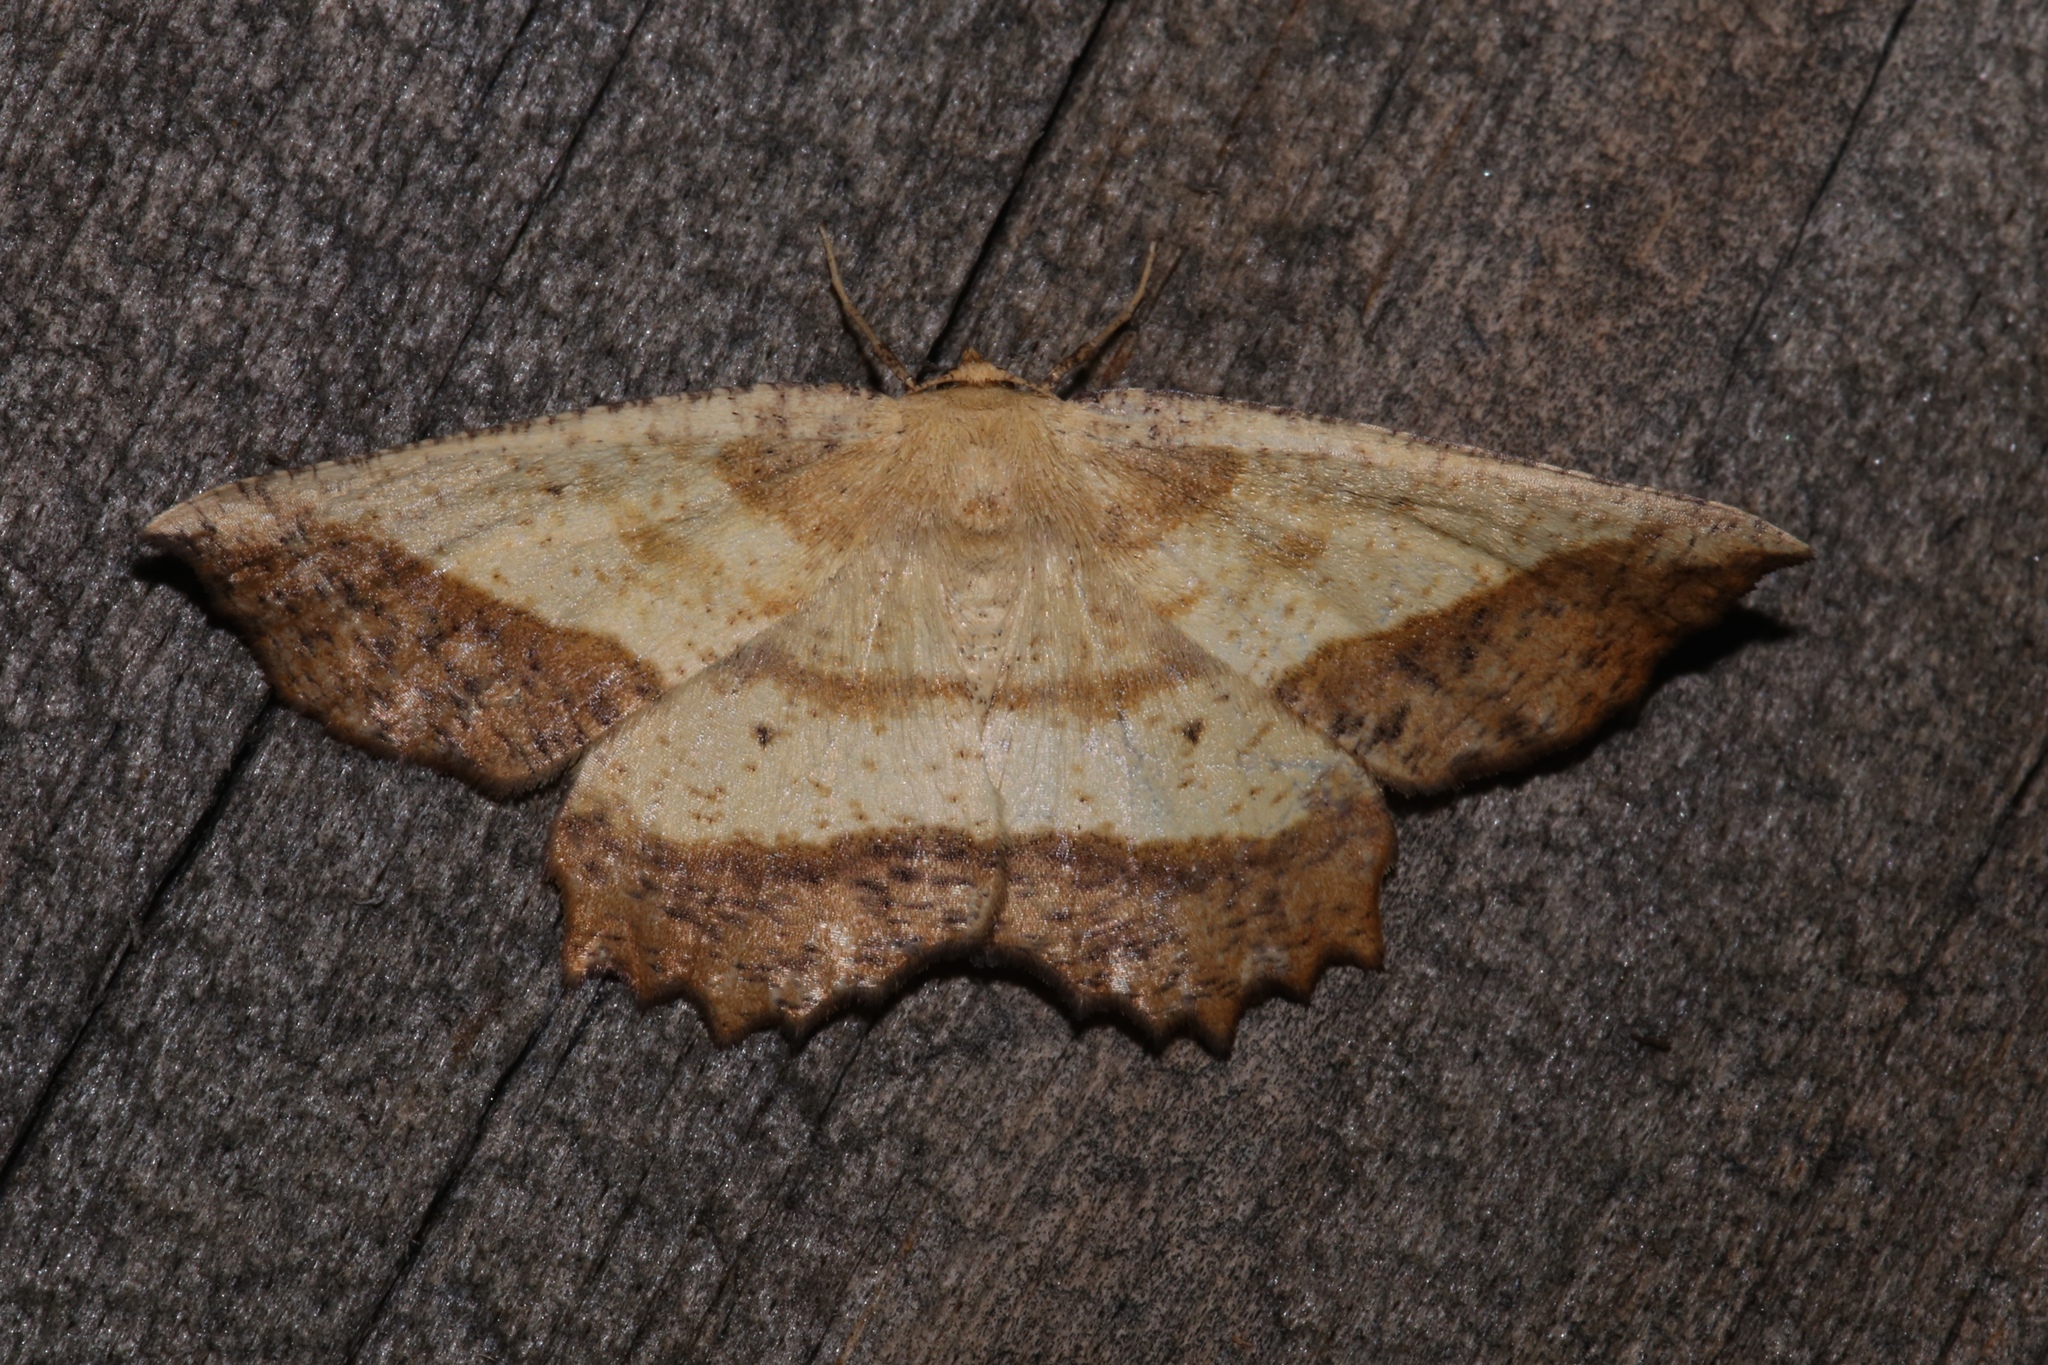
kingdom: Animalia
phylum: Arthropoda
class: Insecta
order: Lepidoptera
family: Geometridae
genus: Euchlaena
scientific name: Euchlaena serrata
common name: Saw wing
